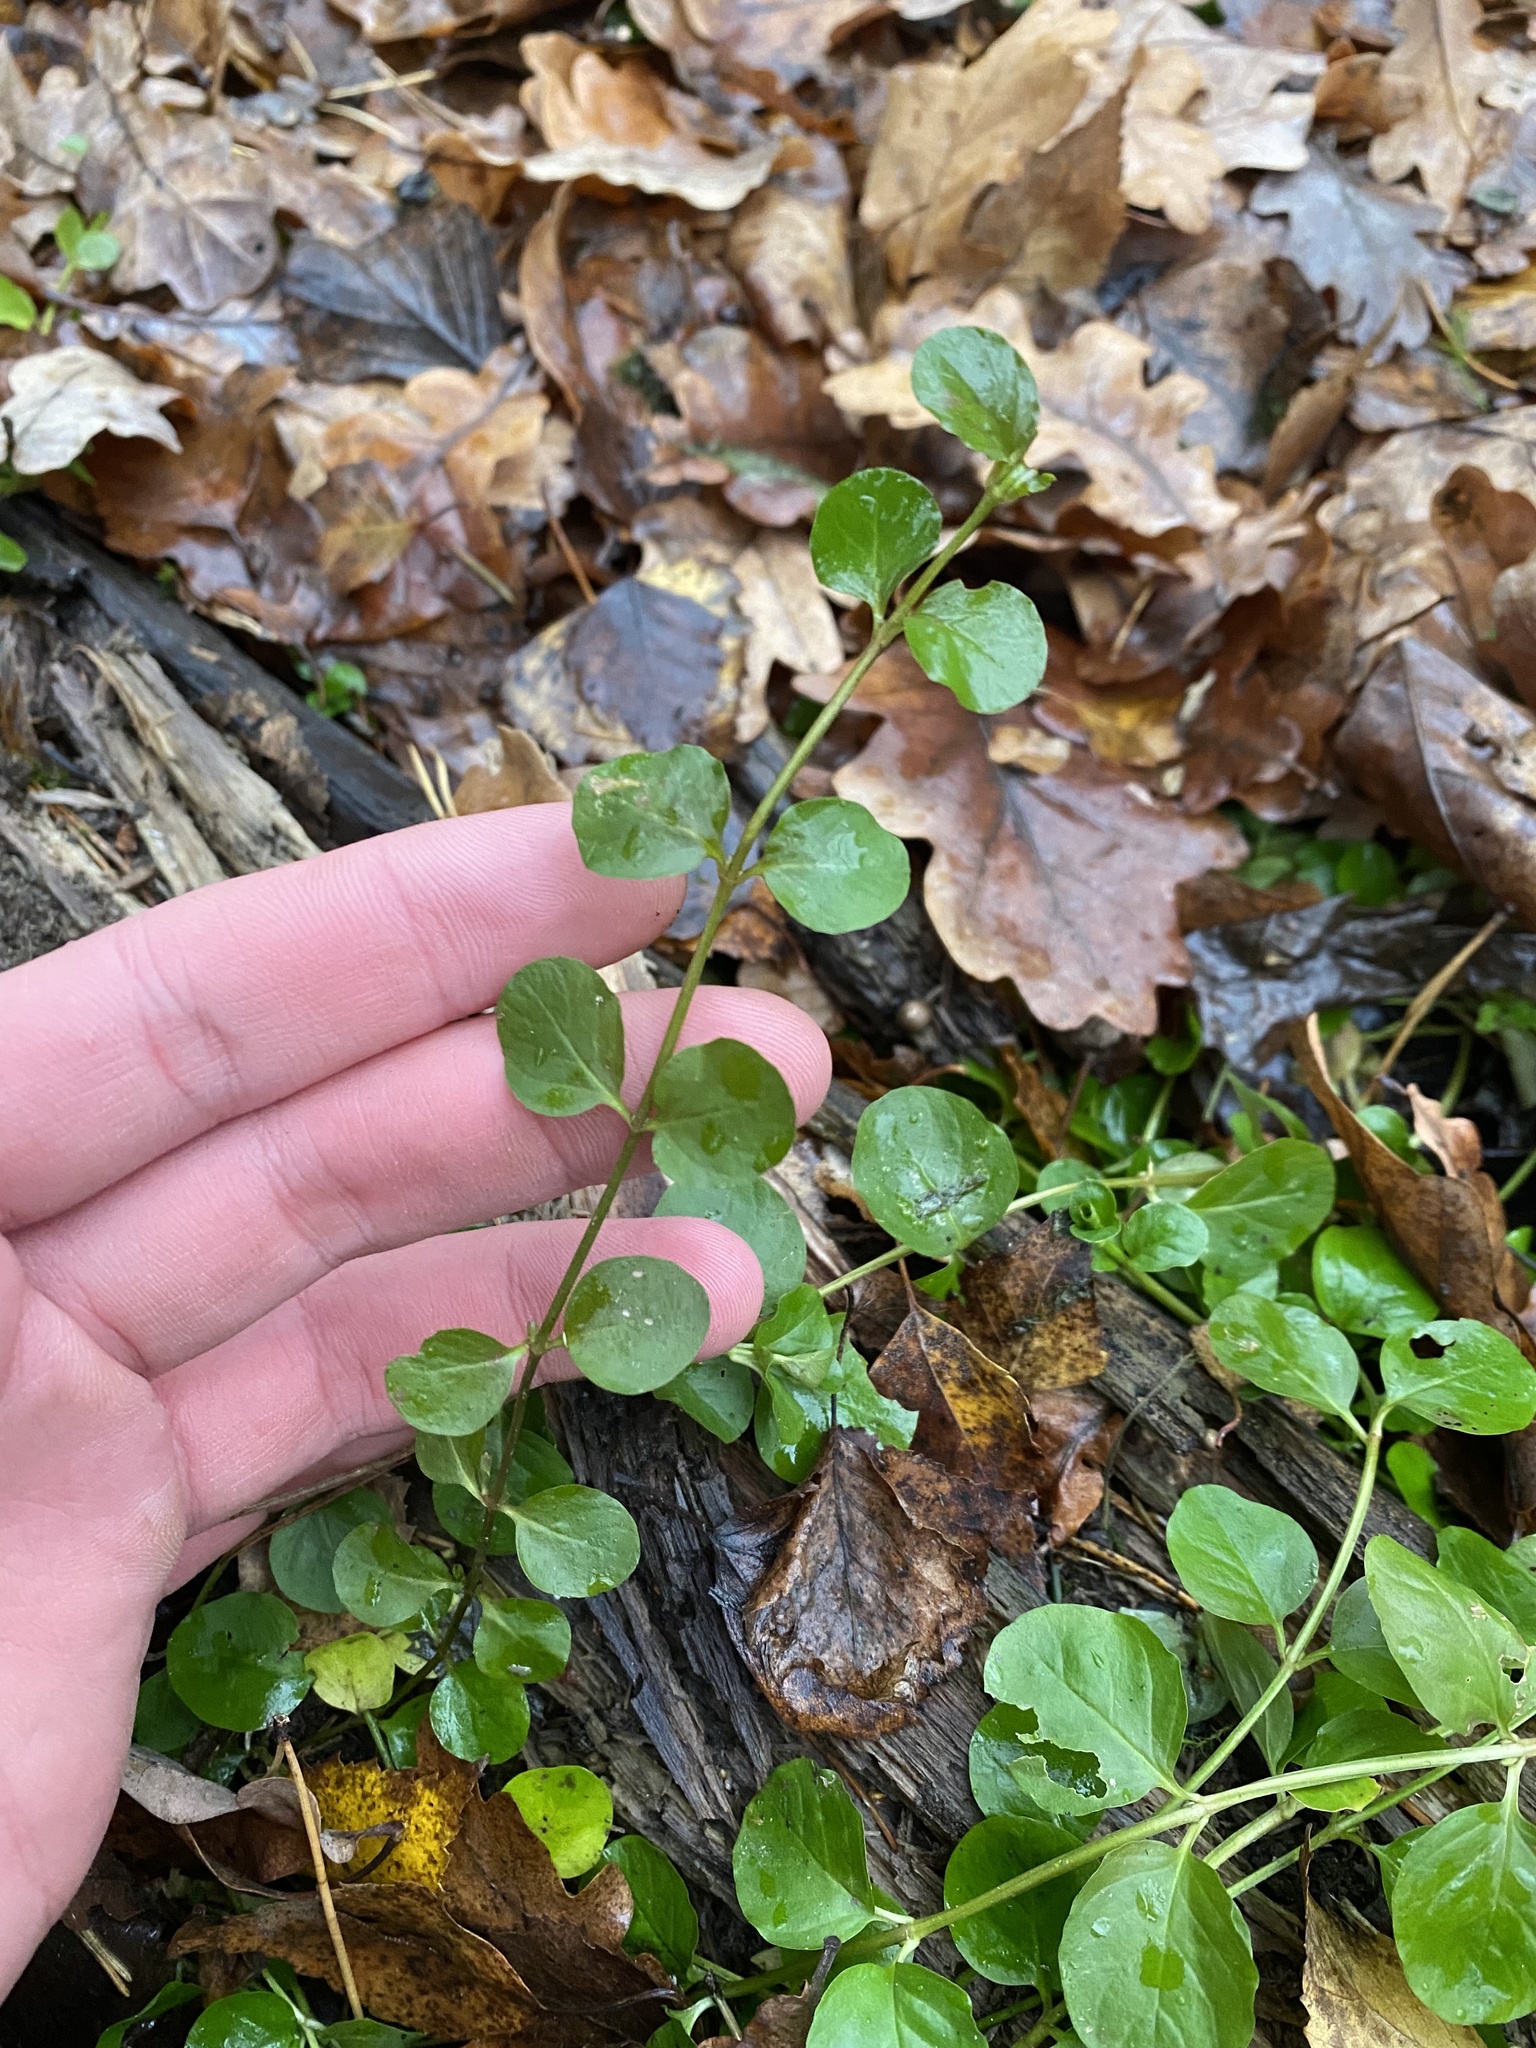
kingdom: Plantae
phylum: Tracheophyta
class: Magnoliopsida
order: Ericales
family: Primulaceae
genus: Lysimachia
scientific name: Lysimachia nummularia
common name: Moneywort
